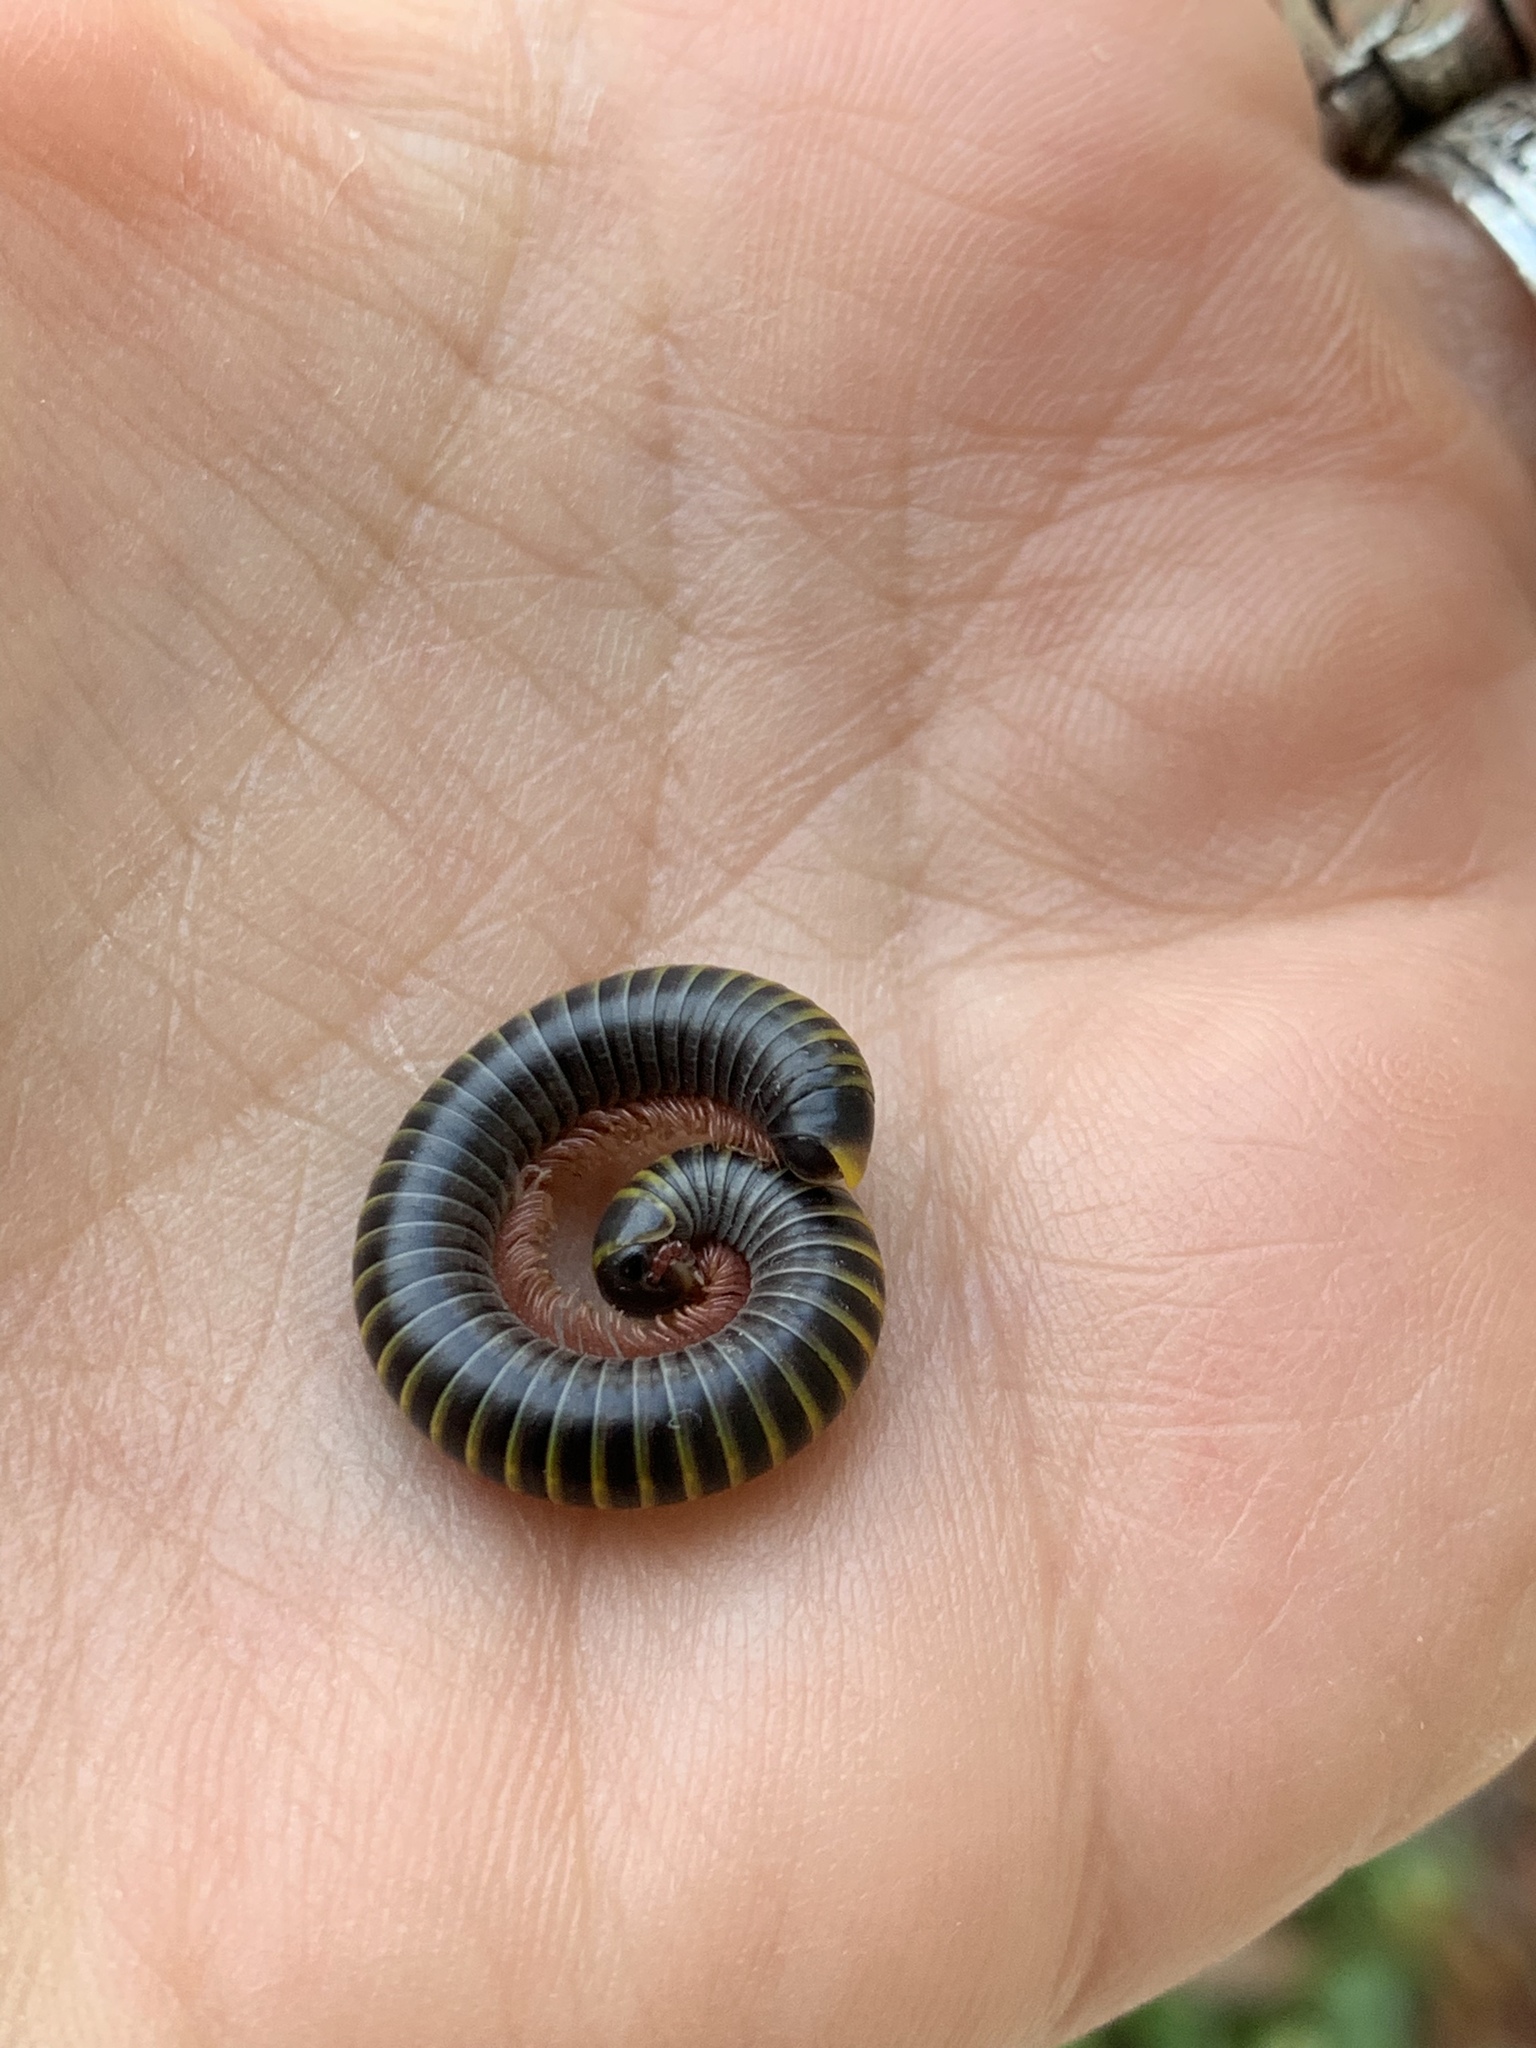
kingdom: Animalia
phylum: Arthropoda
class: Diplopoda
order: Spirobolida
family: Rhinocricidae
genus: Anadenobolus
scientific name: Anadenobolus monilicornis
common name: Caribbean millipede
